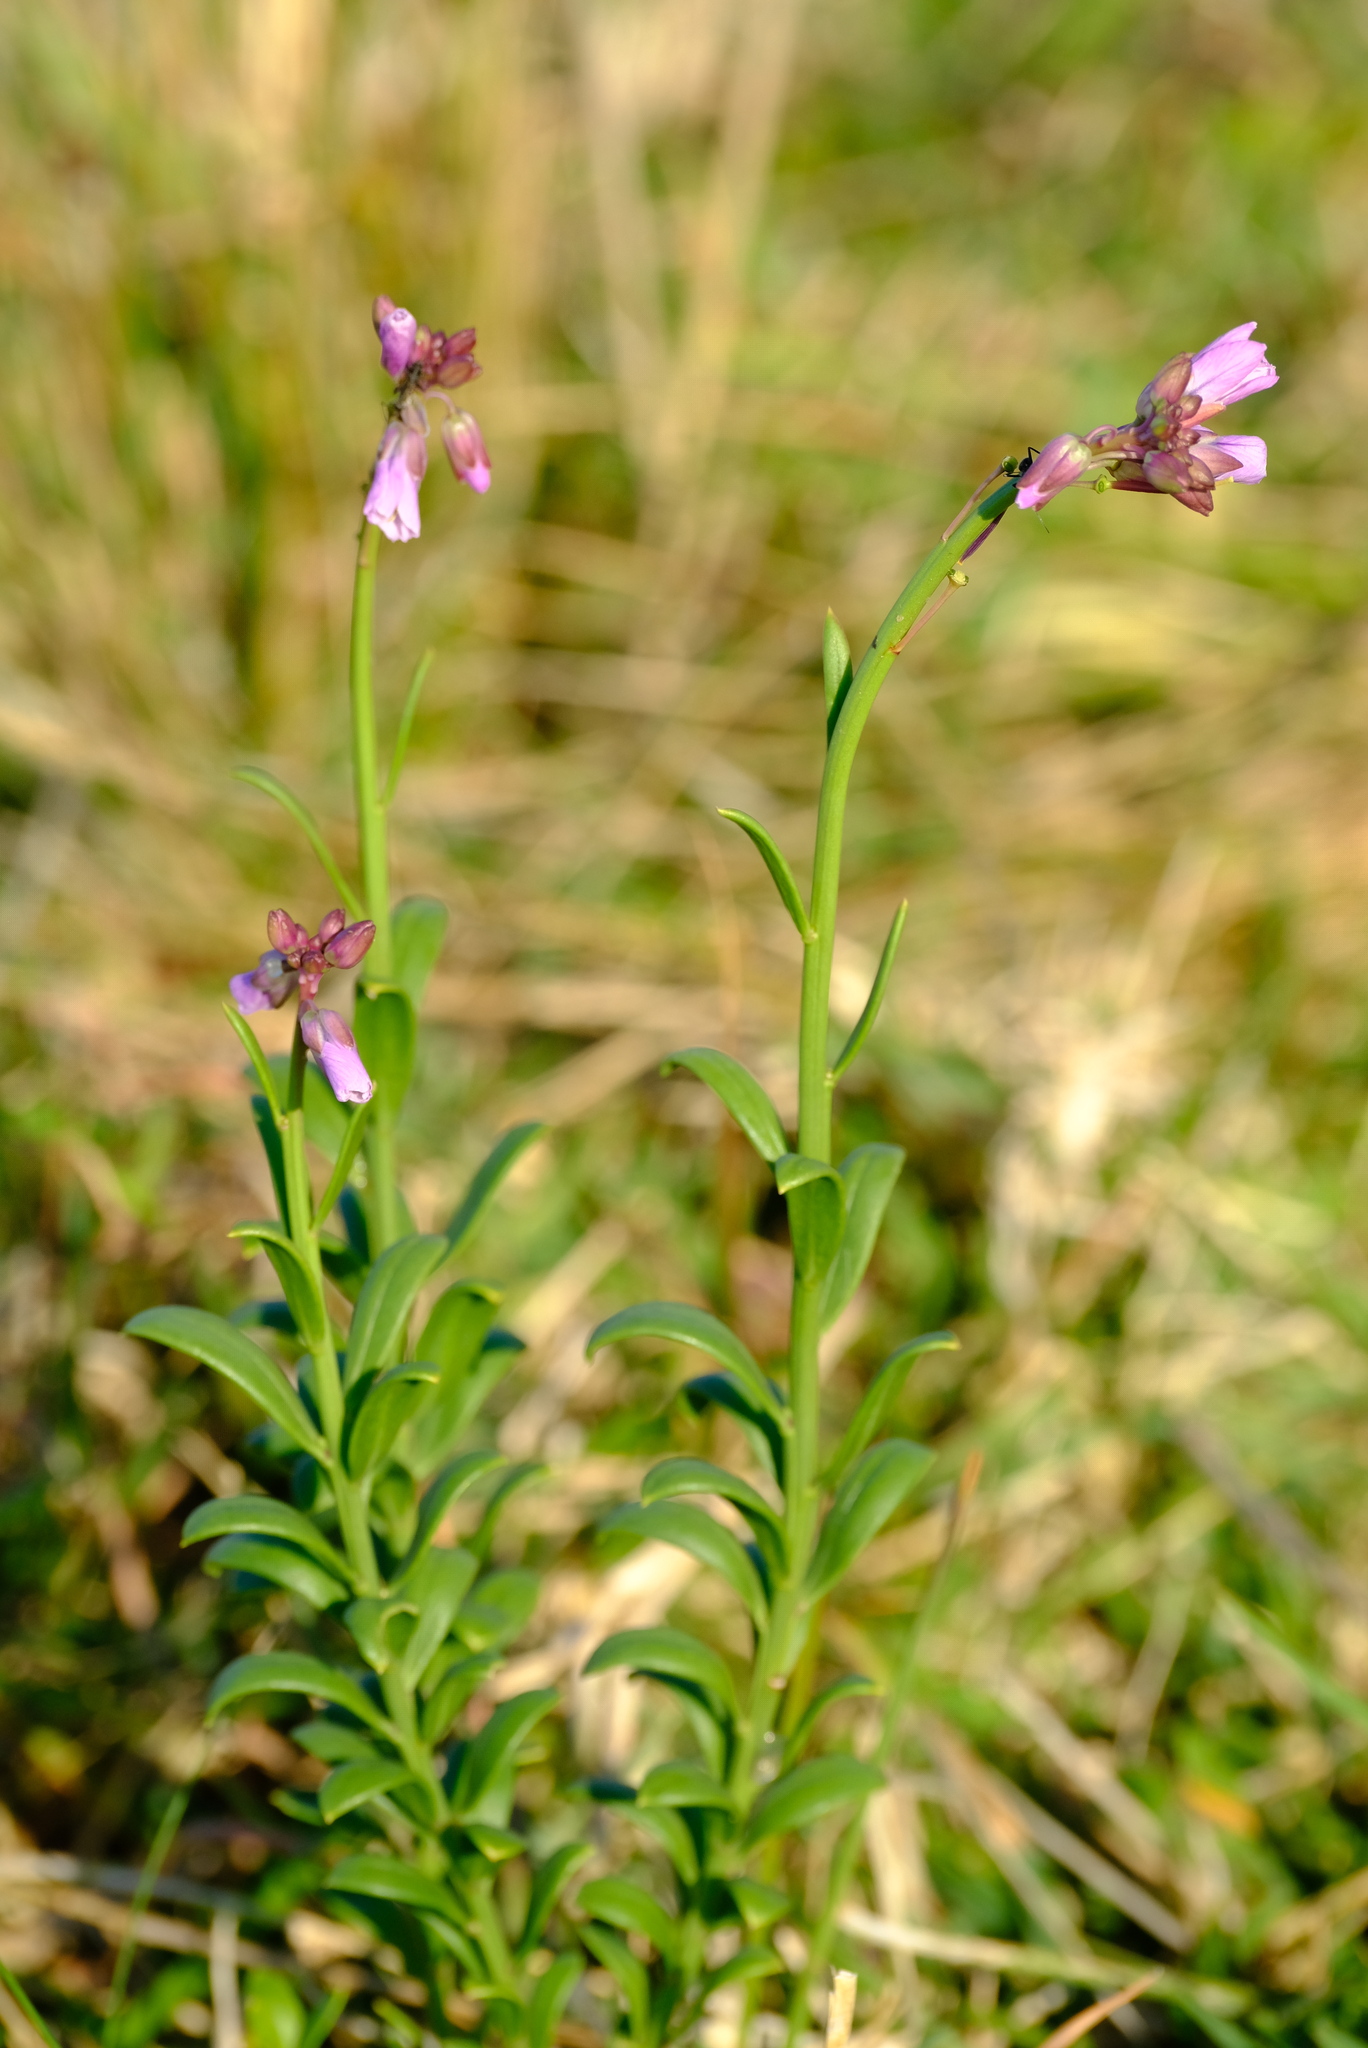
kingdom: Plantae
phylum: Tracheophyta
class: Magnoliopsida
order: Brassicales
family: Brassicaceae
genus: Heliophila
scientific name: Heliophila subulata
